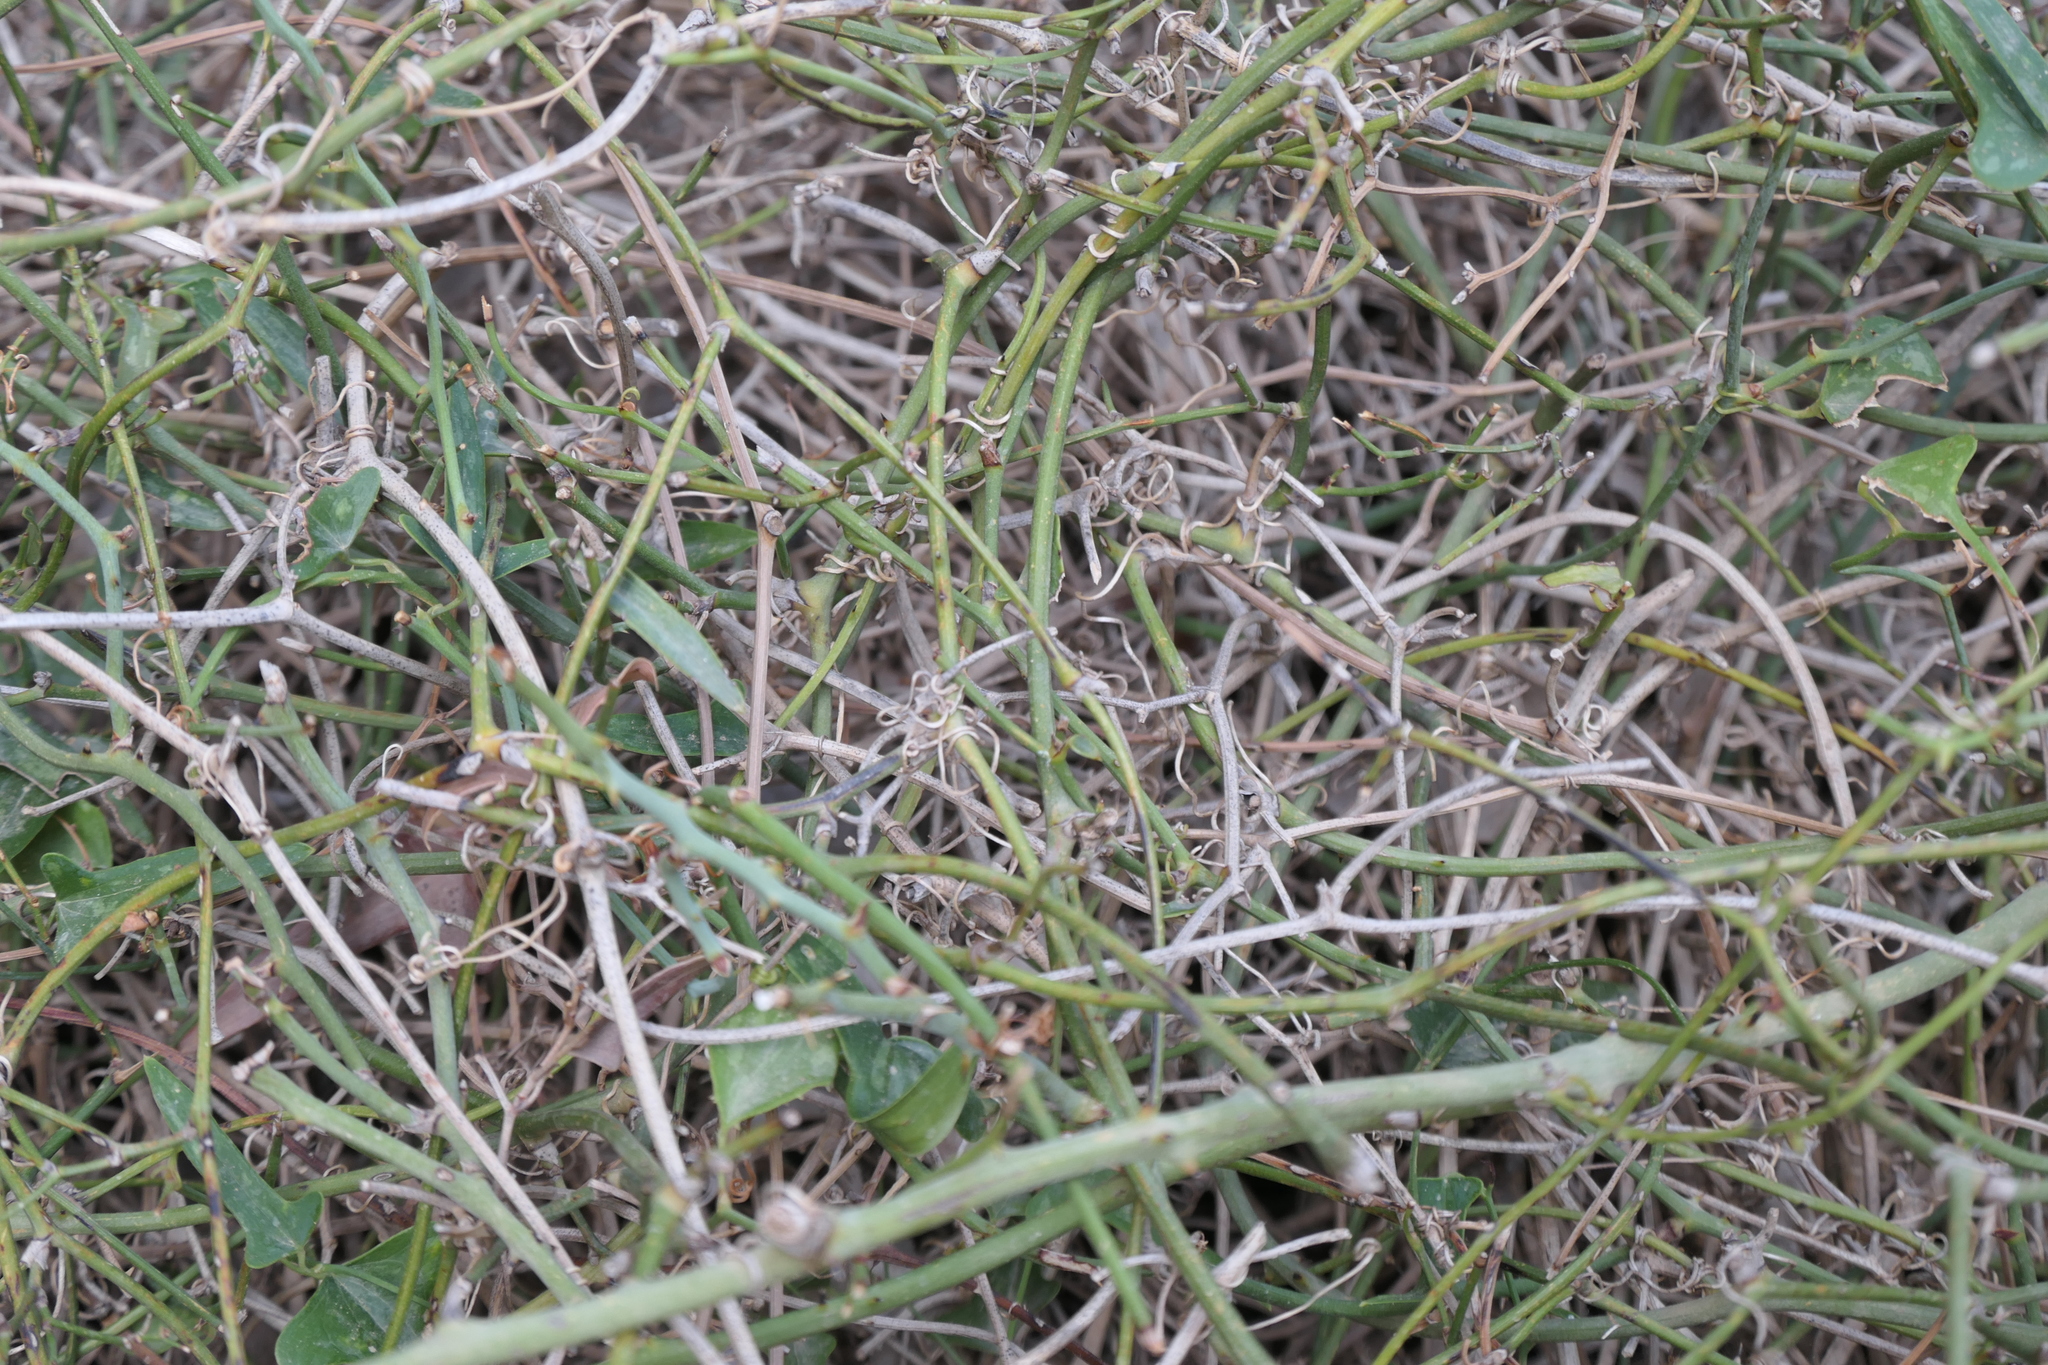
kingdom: Plantae
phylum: Tracheophyta
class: Liliopsida
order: Liliales
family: Smilacaceae
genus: Smilax
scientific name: Smilax aspera
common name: Common smilax
